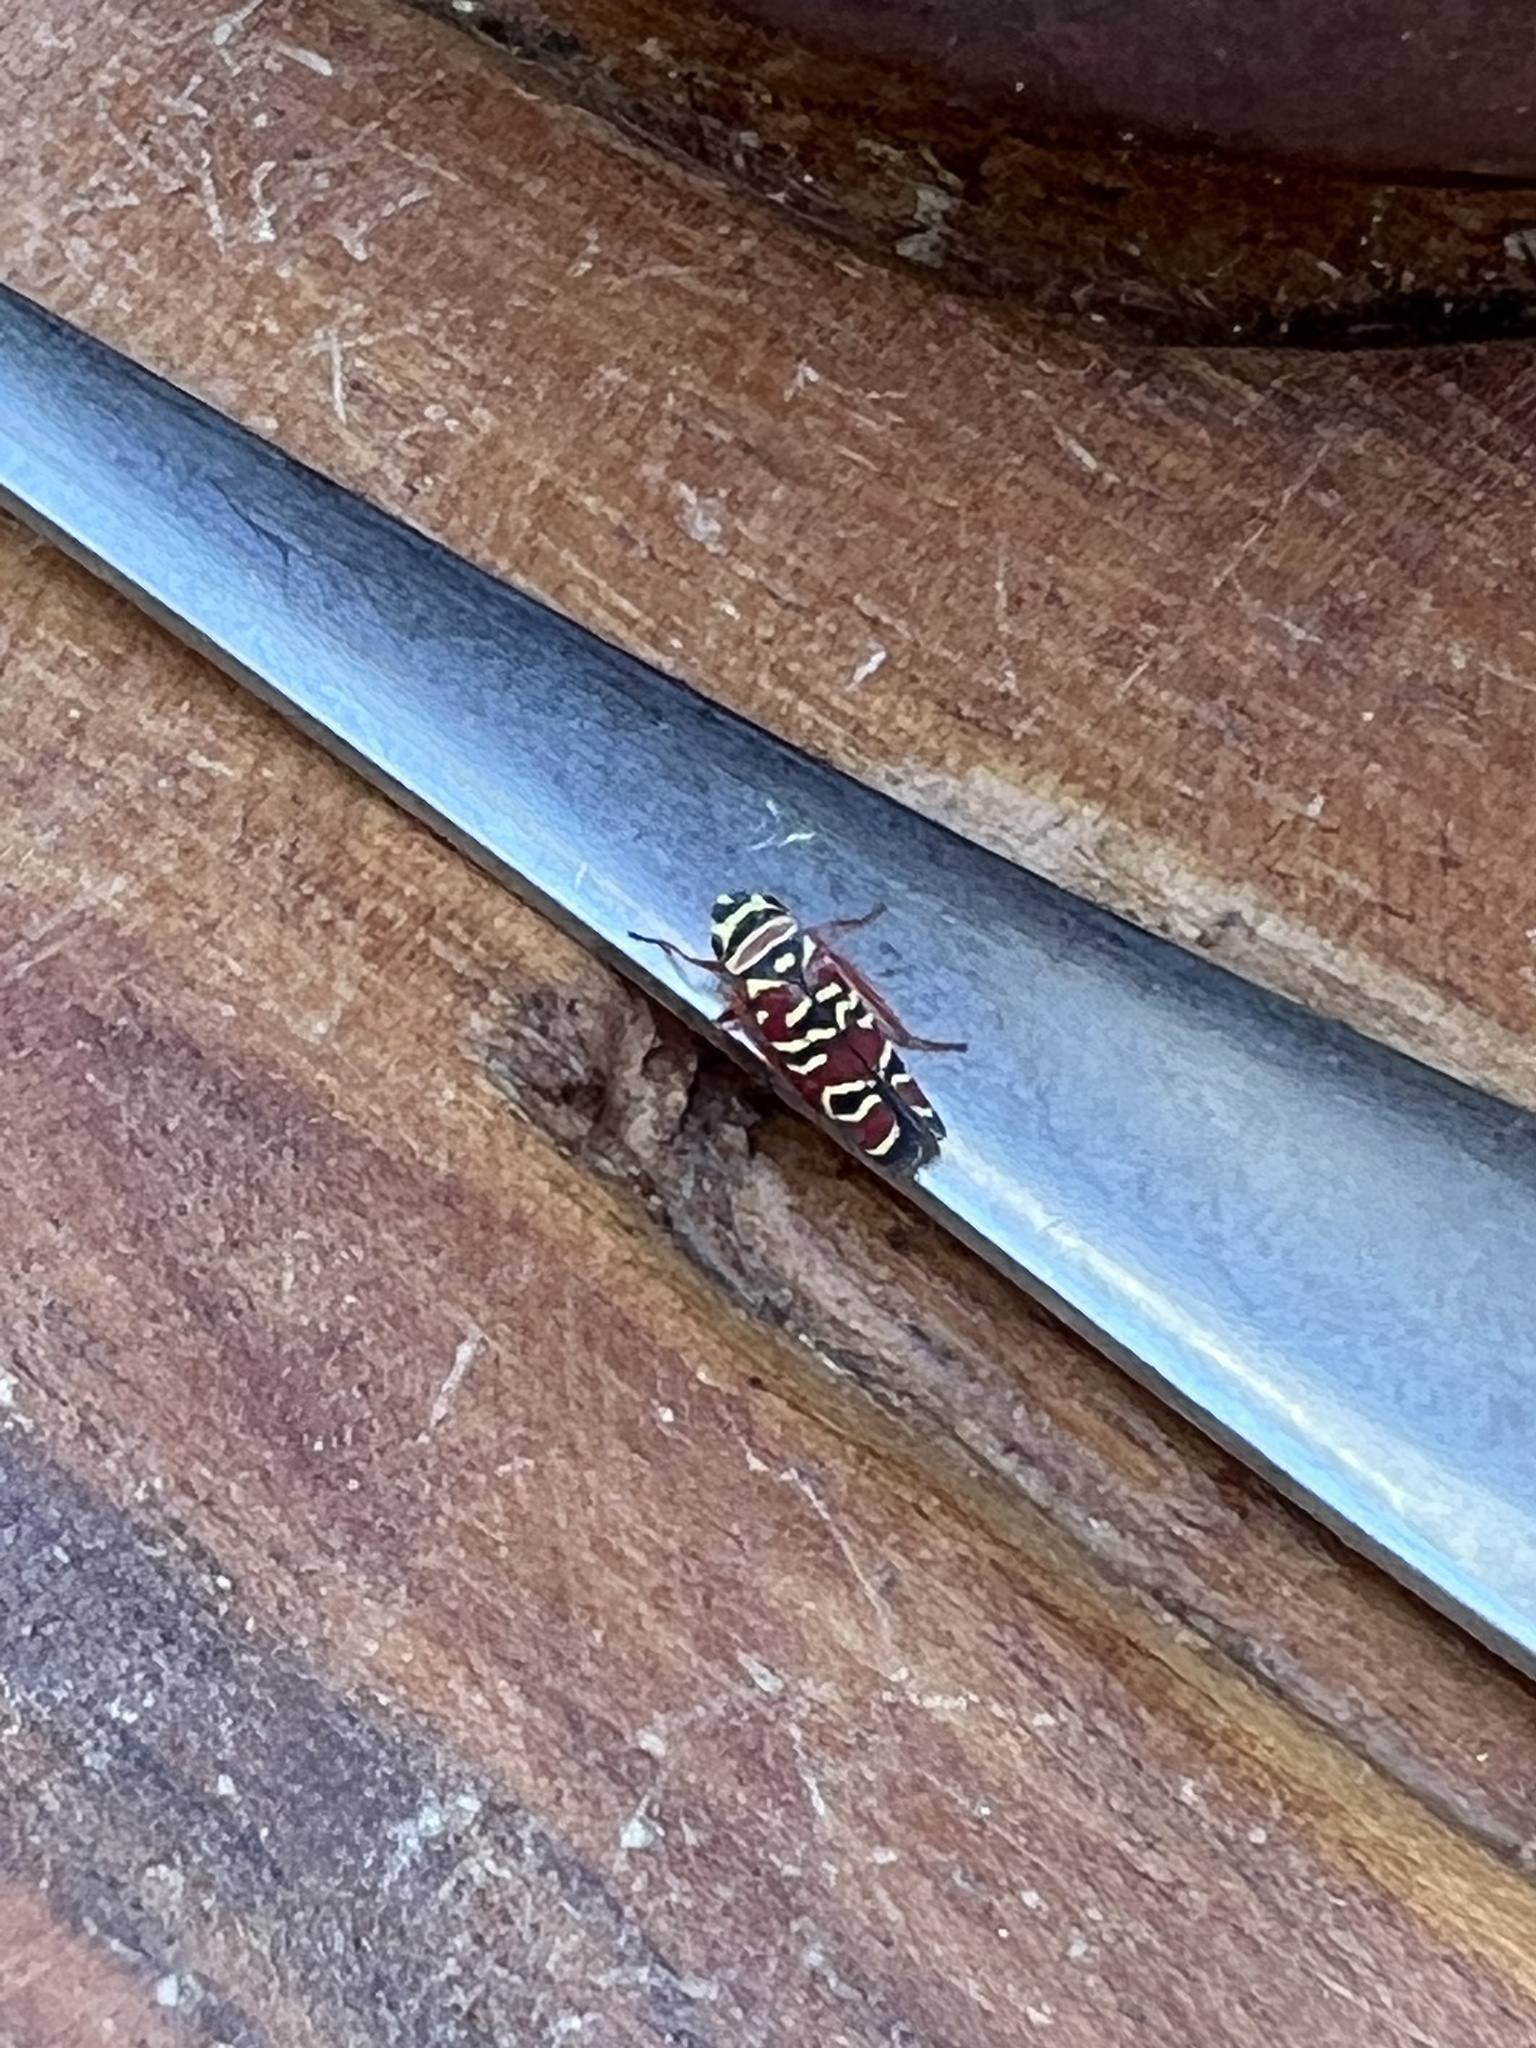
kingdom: Animalia
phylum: Arthropoda
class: Insecta
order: Hemiptera
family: Cicadellidae
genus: Agrosoma
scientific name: Agrosoma placetis
